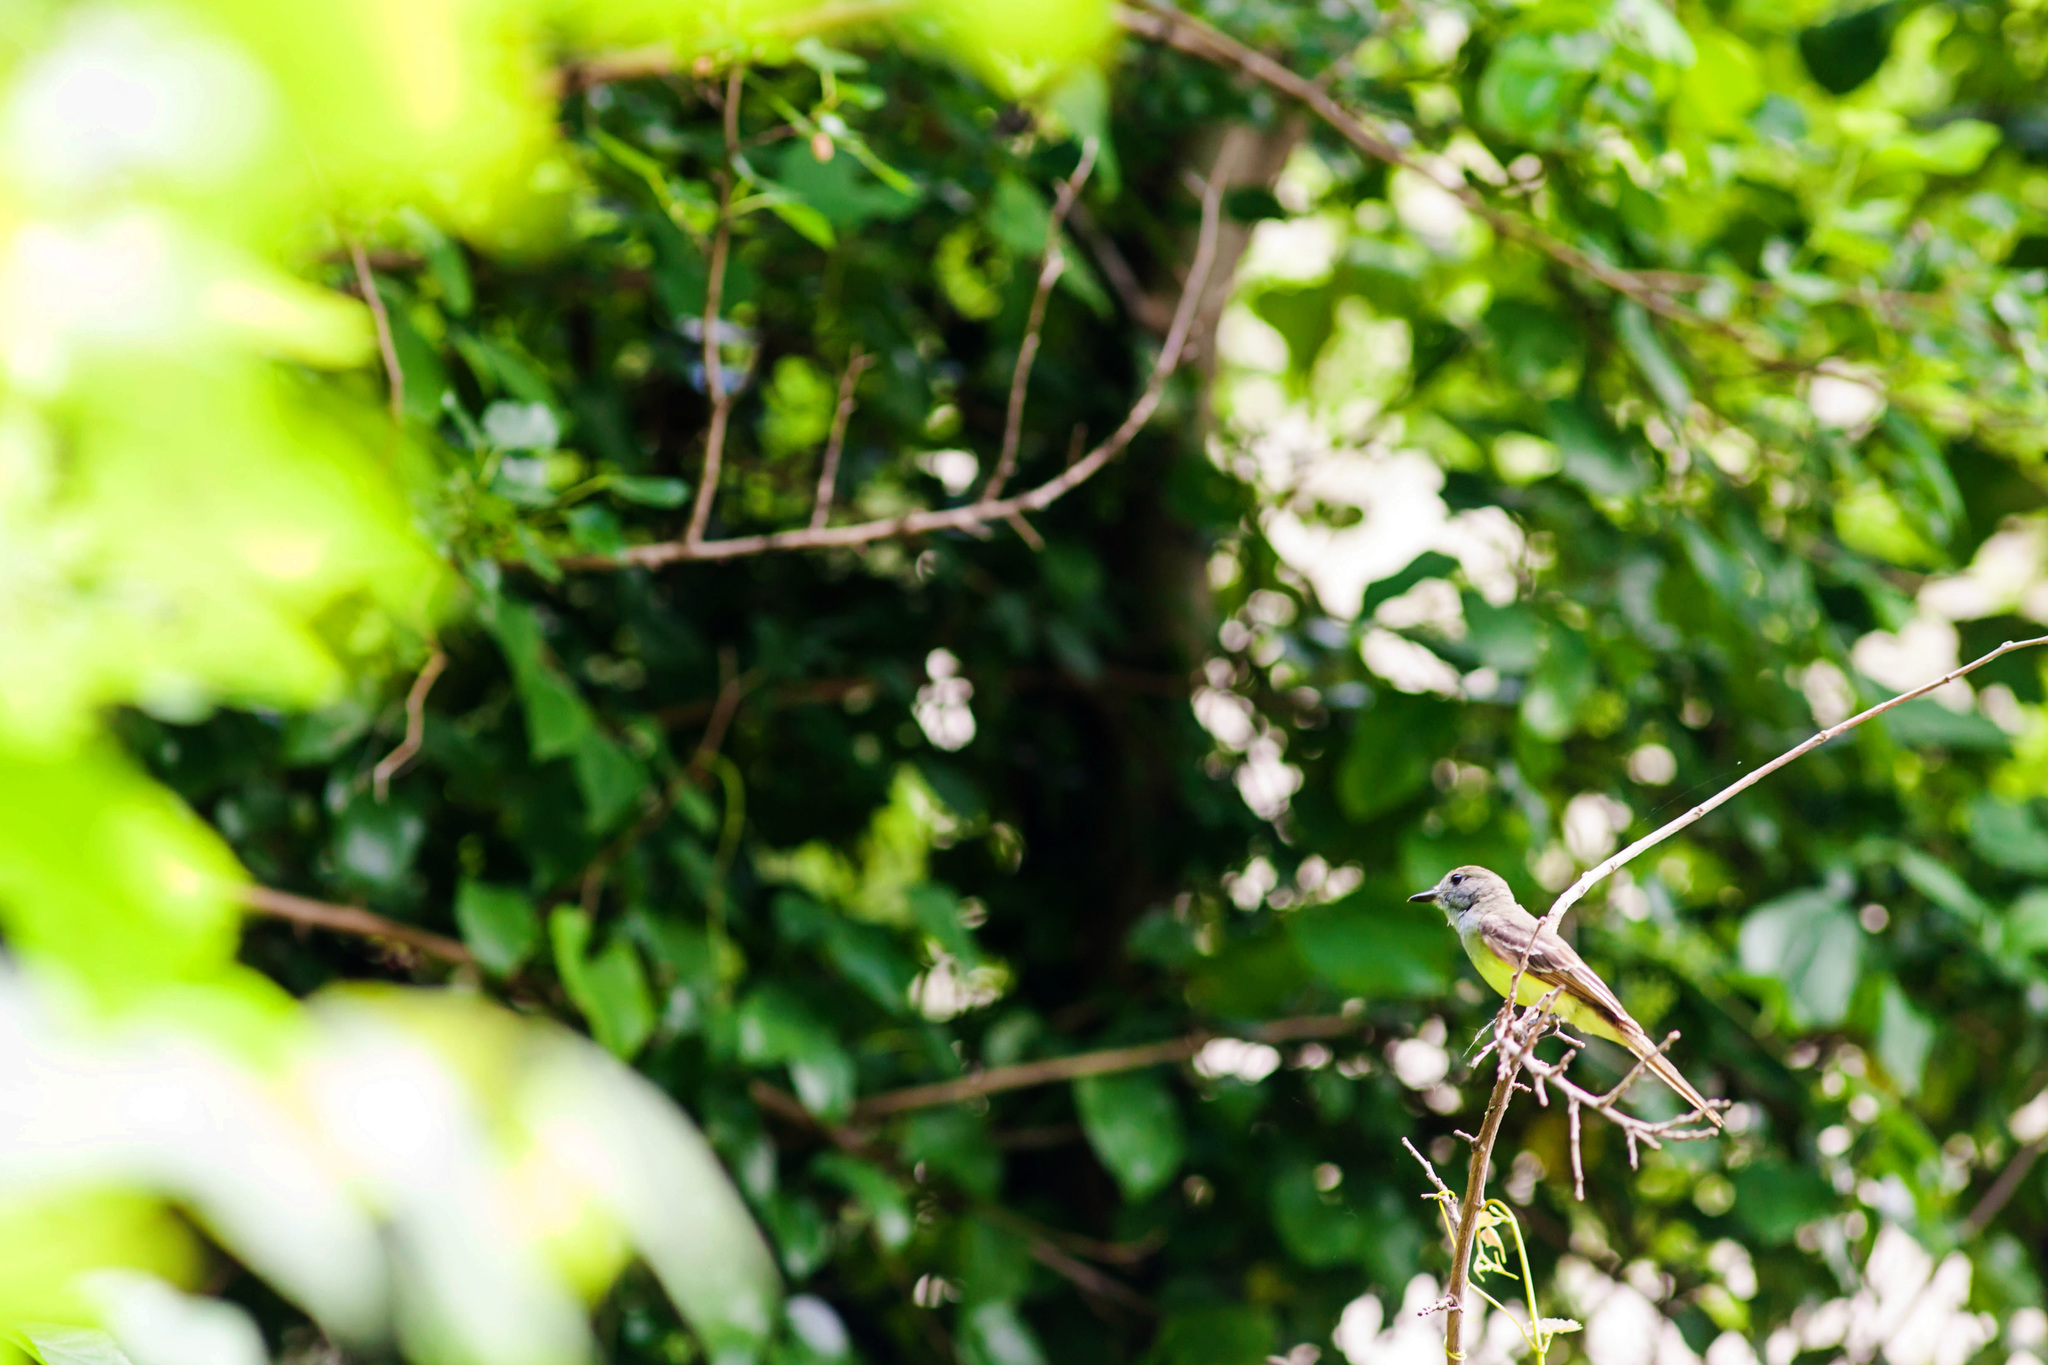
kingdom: Animalia
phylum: Chordata
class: Aves
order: Passeriformes
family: Tyrannidae
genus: Myiarchus
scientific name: Myiarchus crinitus
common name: Great crested flycatcher
